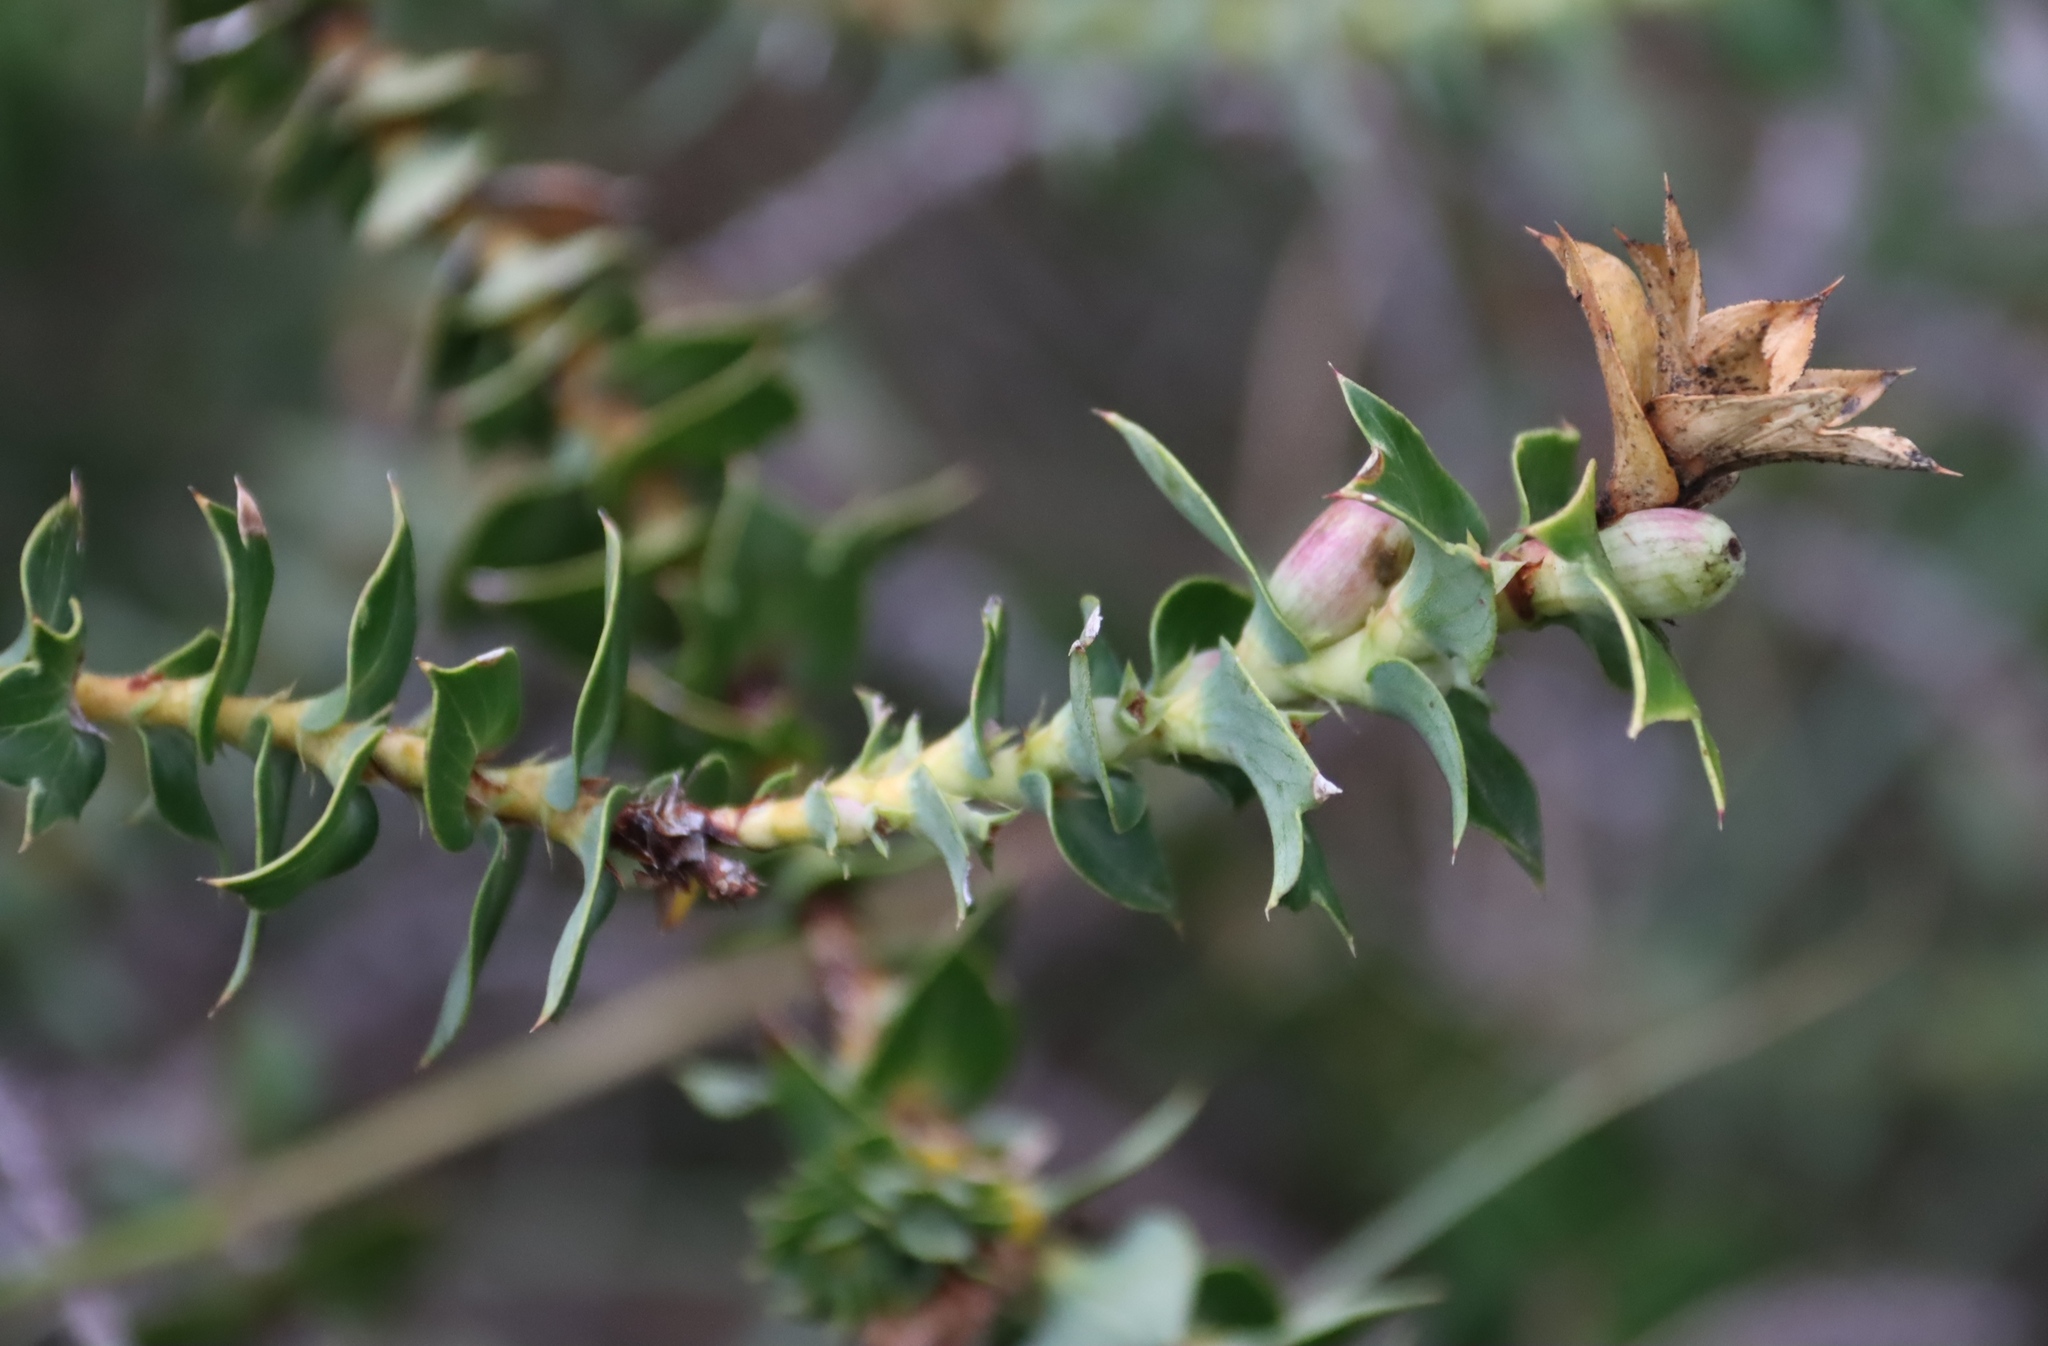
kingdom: Plantae
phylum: Tracheophyta
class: Magnoliopsida
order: Rosales
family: Rosaceae
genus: Cliffortia
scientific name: Cliffortia ilicifolia
